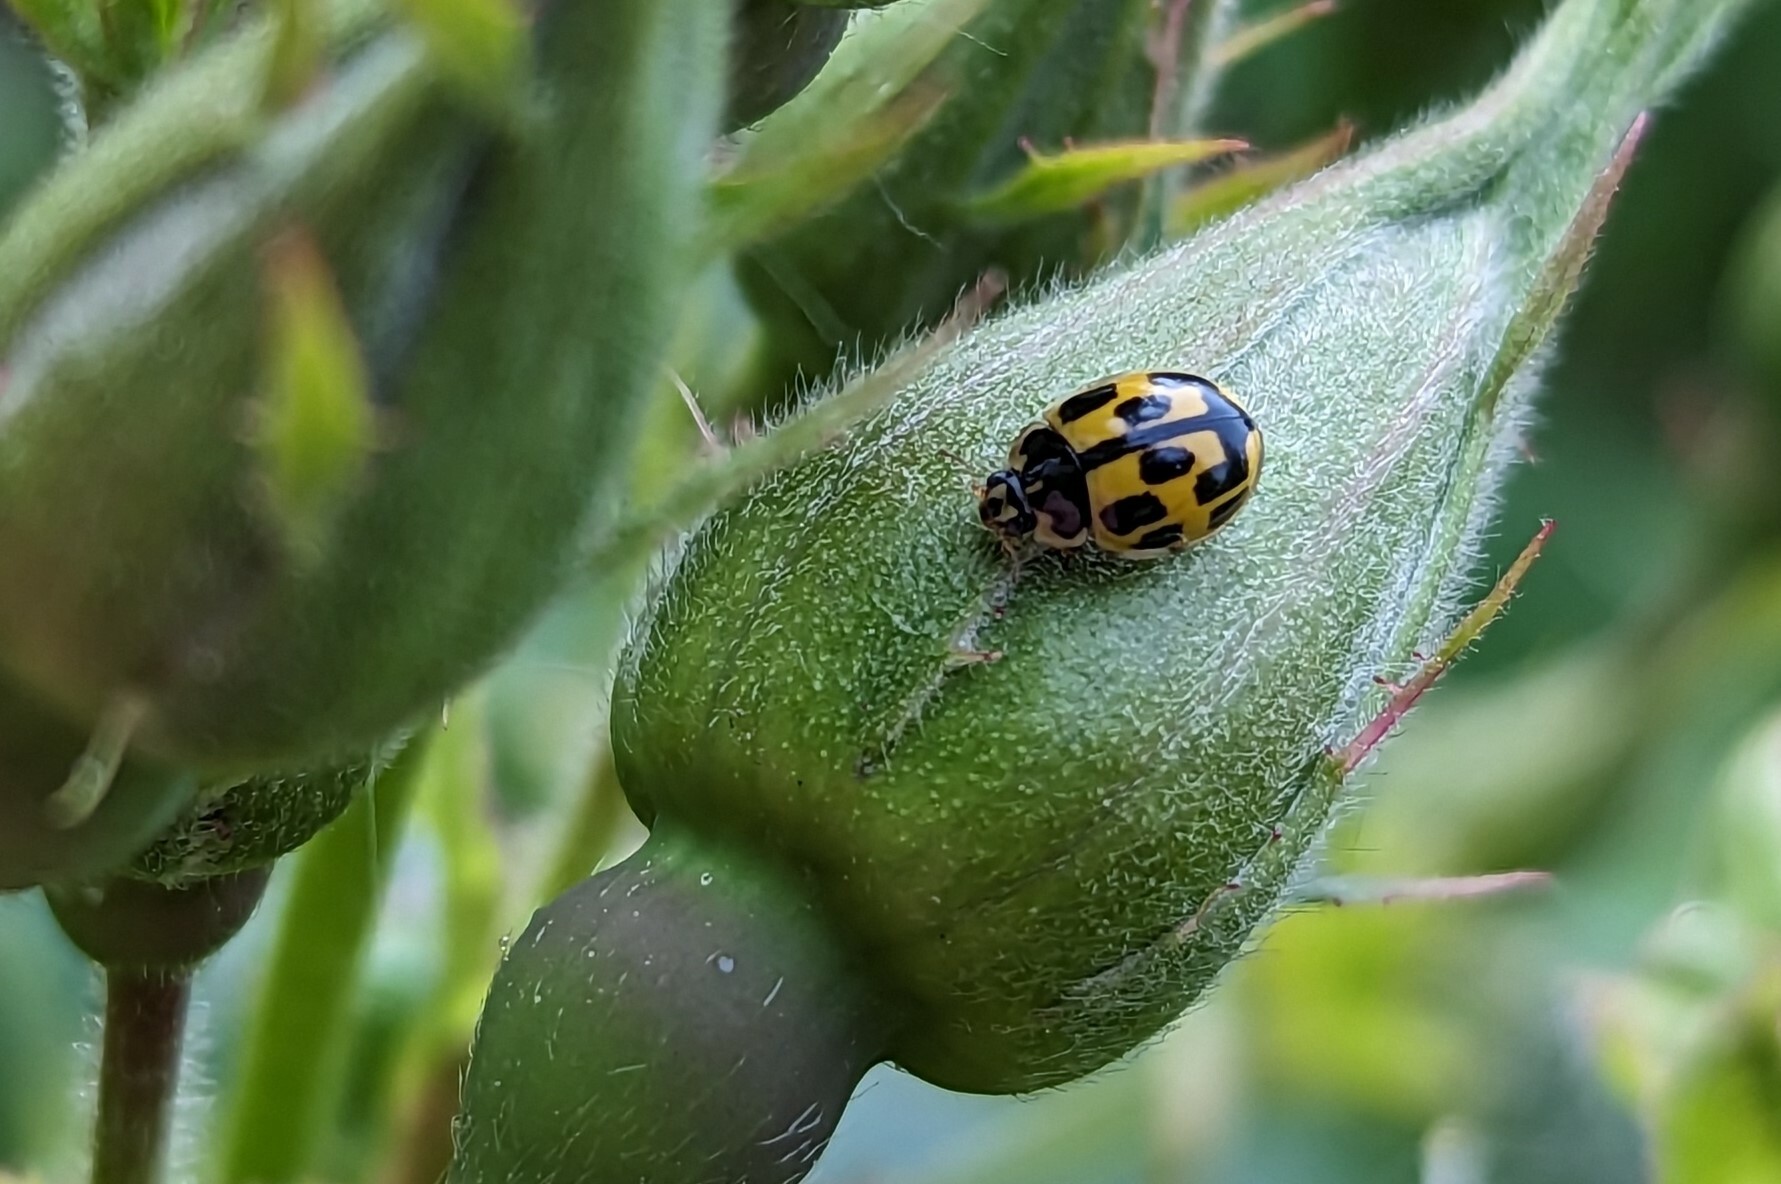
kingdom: Animalia
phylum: Arthropoda
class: Insecta
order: Coleoptera
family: Coccinellidae
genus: Propylaea
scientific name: Propylaea quatuordecimpunctata
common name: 14-spotted ladybird beetle
